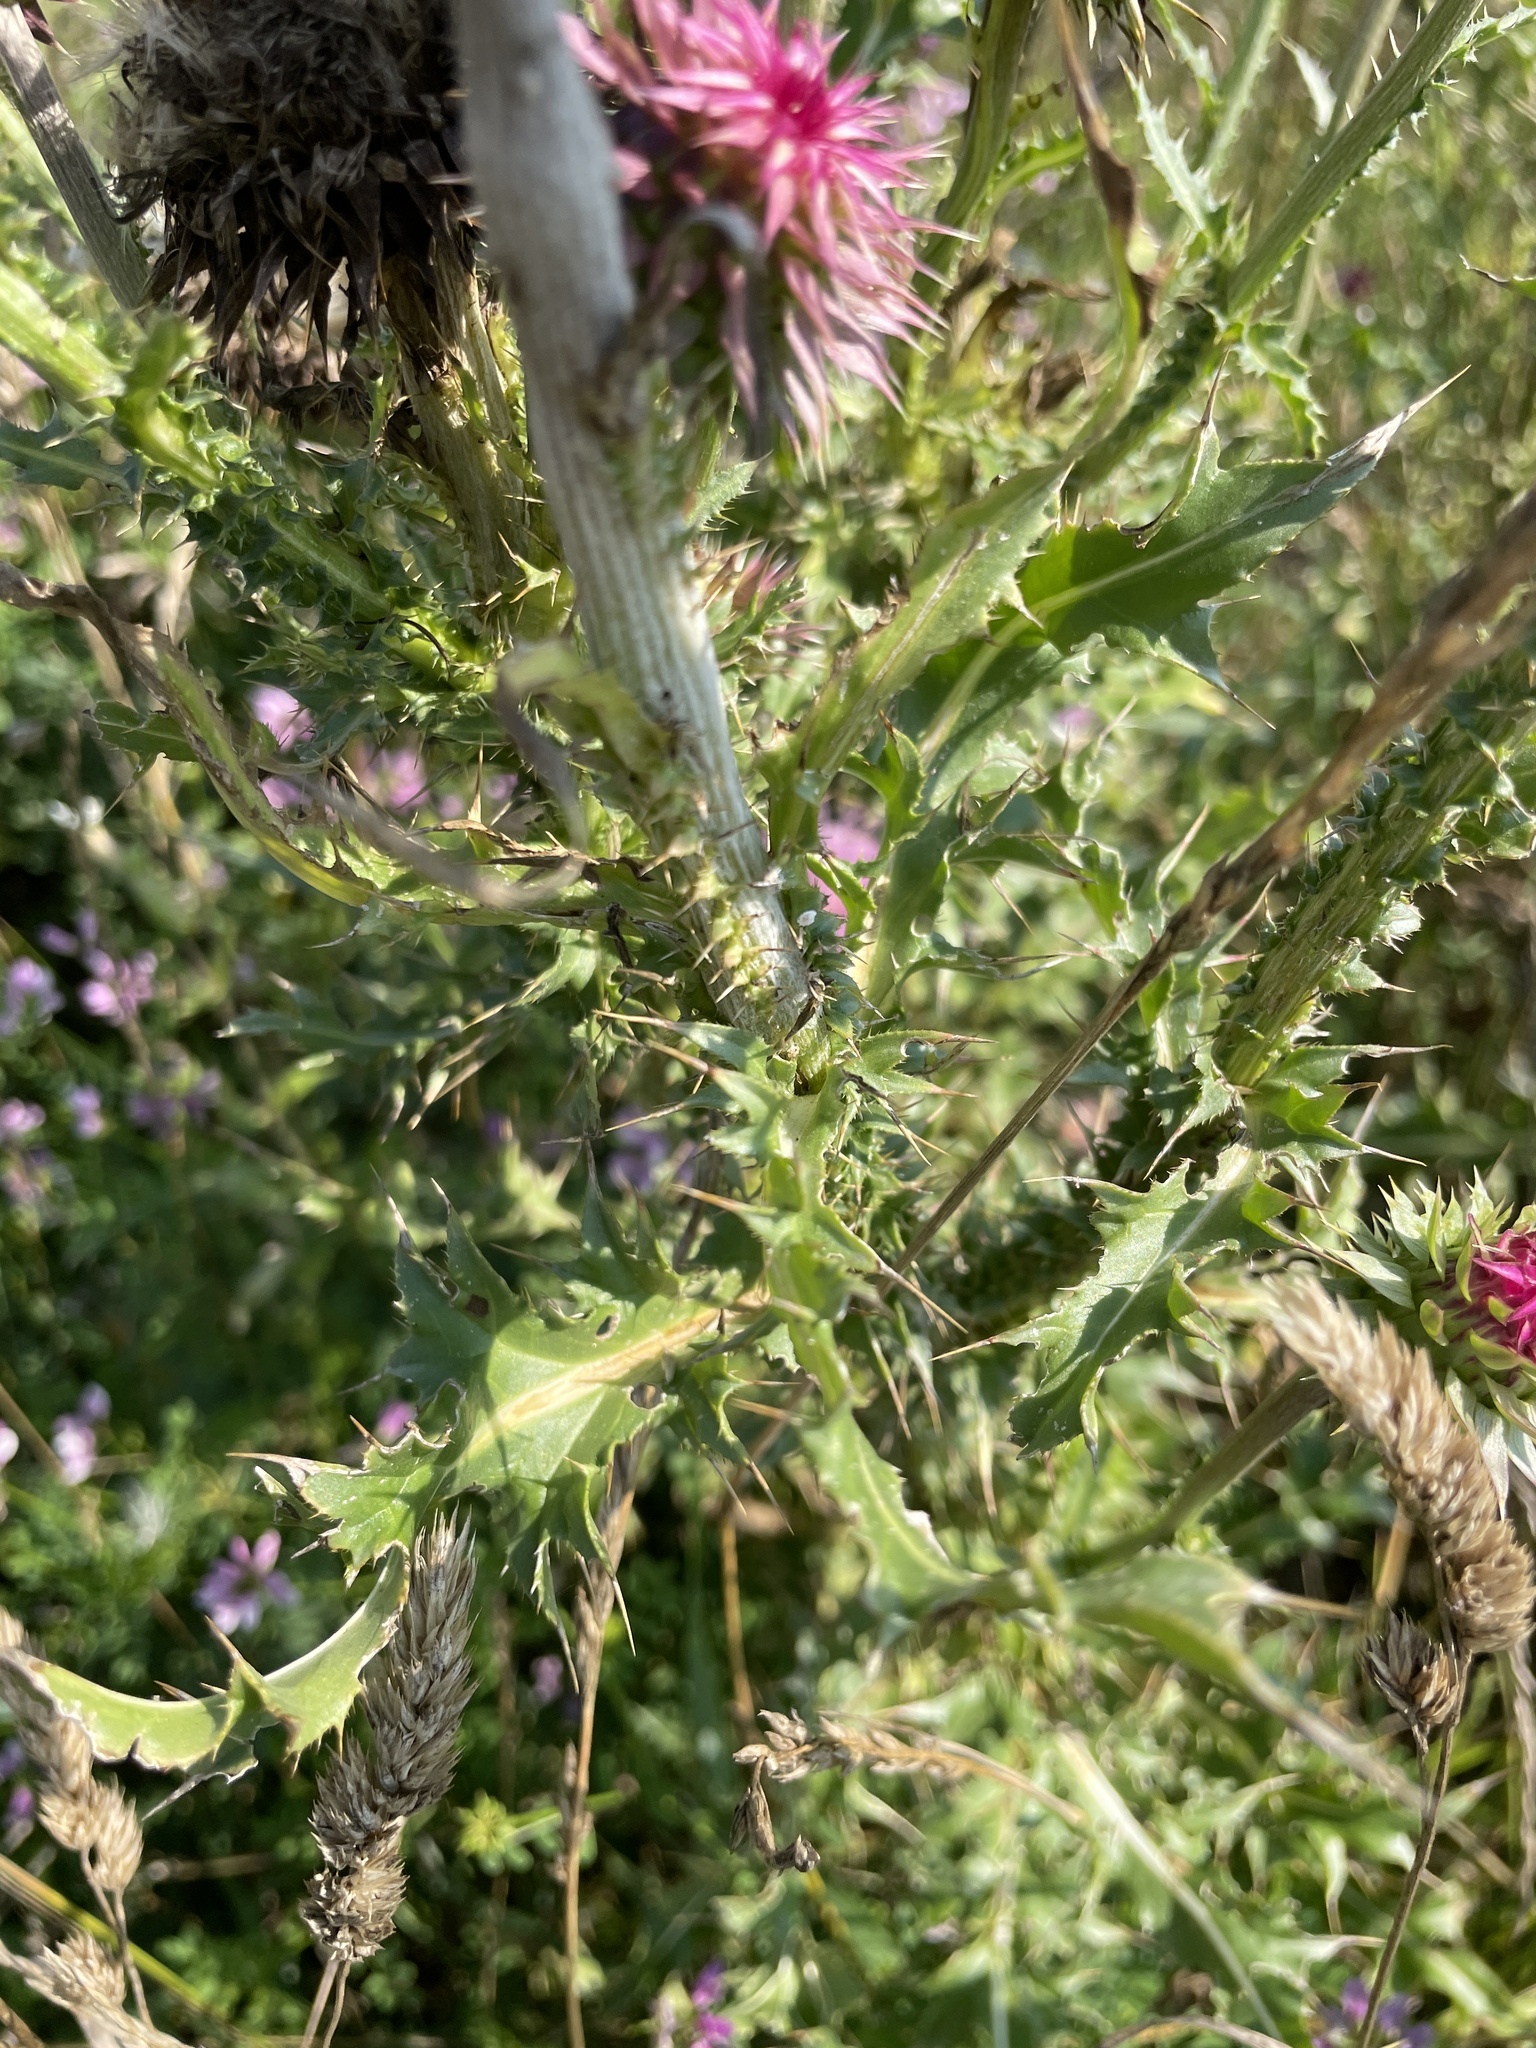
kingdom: Plantae
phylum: Tracheophyta
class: Magnoliopsida
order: Asterales
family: Asteraceae
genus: Carduus
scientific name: Carduus nutans
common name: Musk thistle
